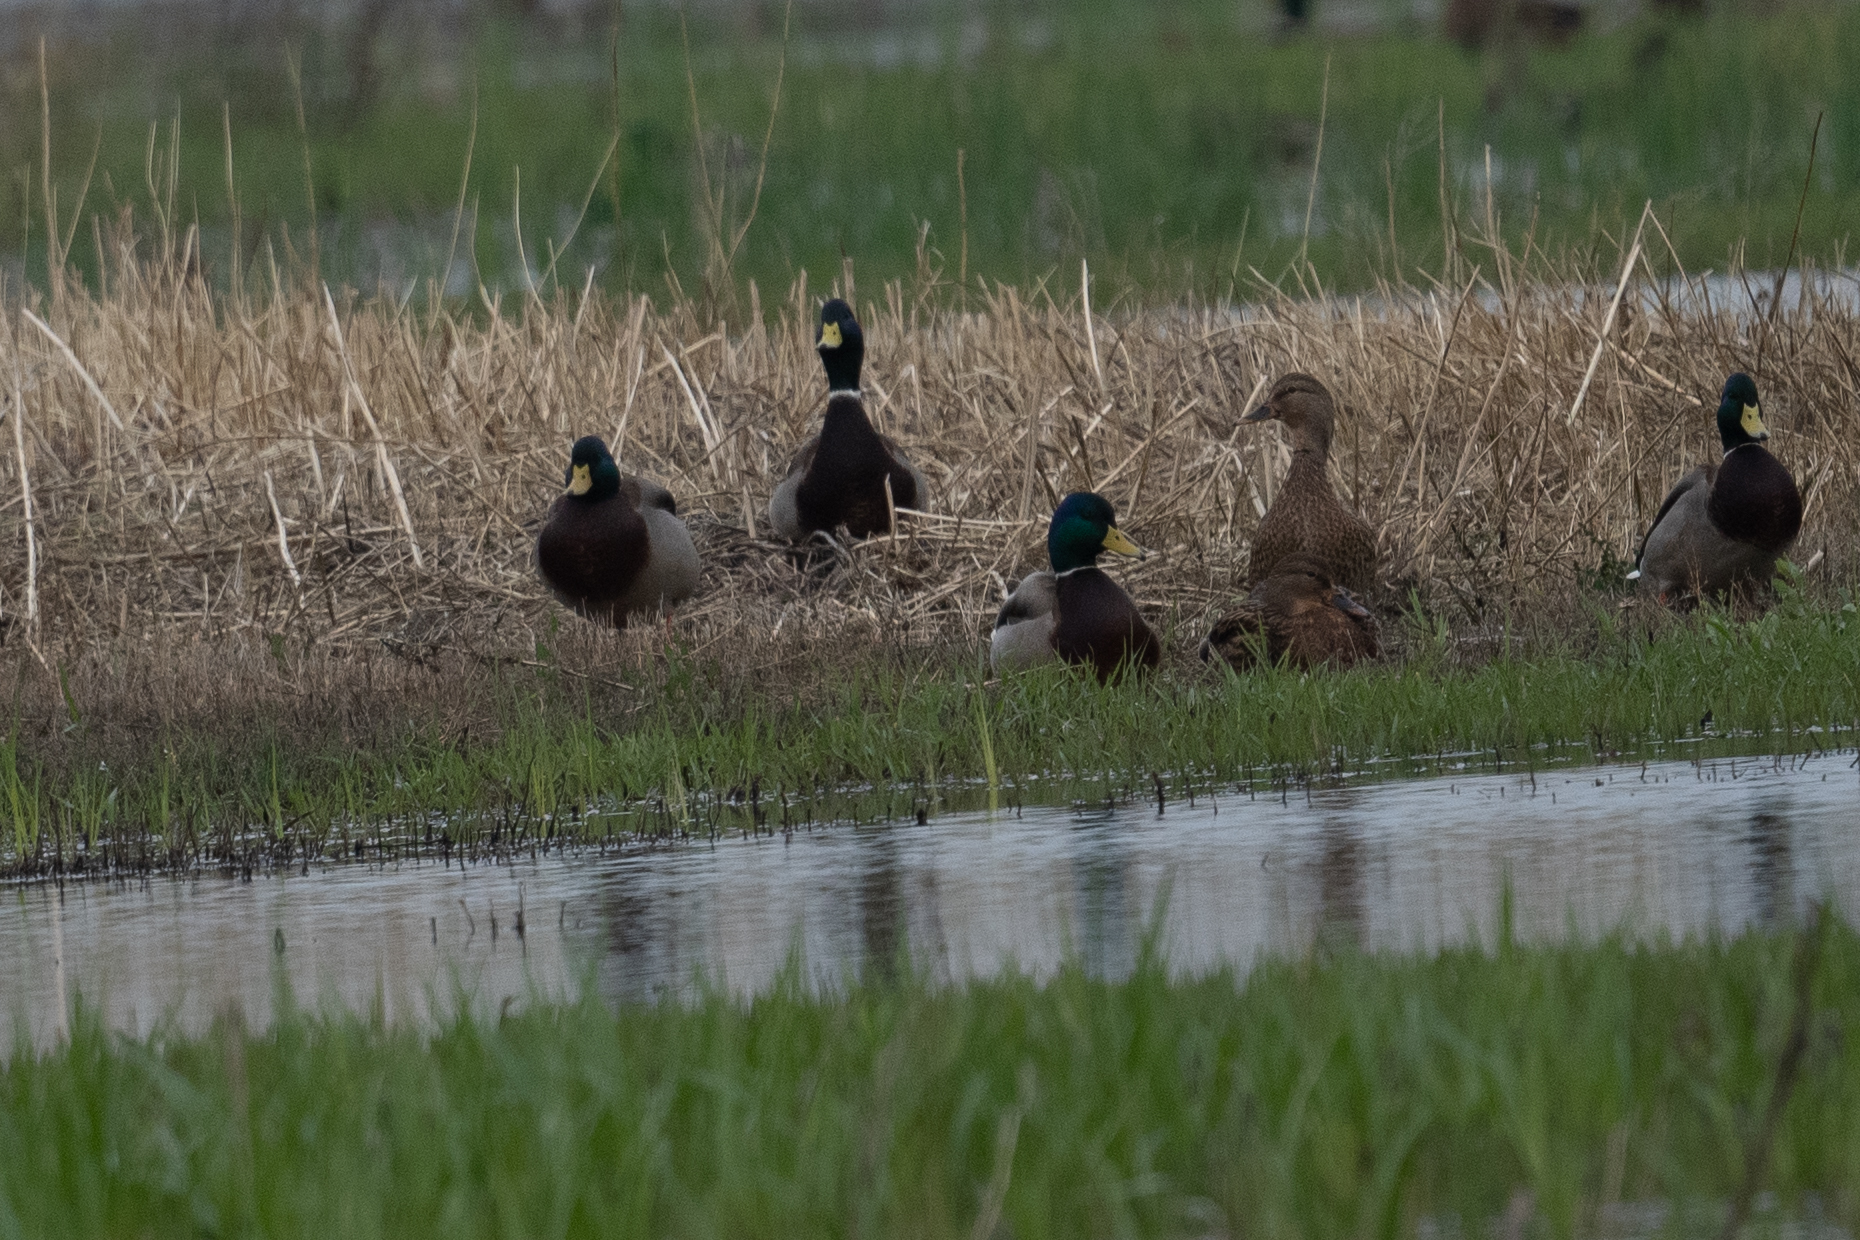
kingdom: Animalia
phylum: Chordata
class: Aves
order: Anseriformes
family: Anatidae
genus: Anas
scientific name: Anas platyrhynchos
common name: Mallard
